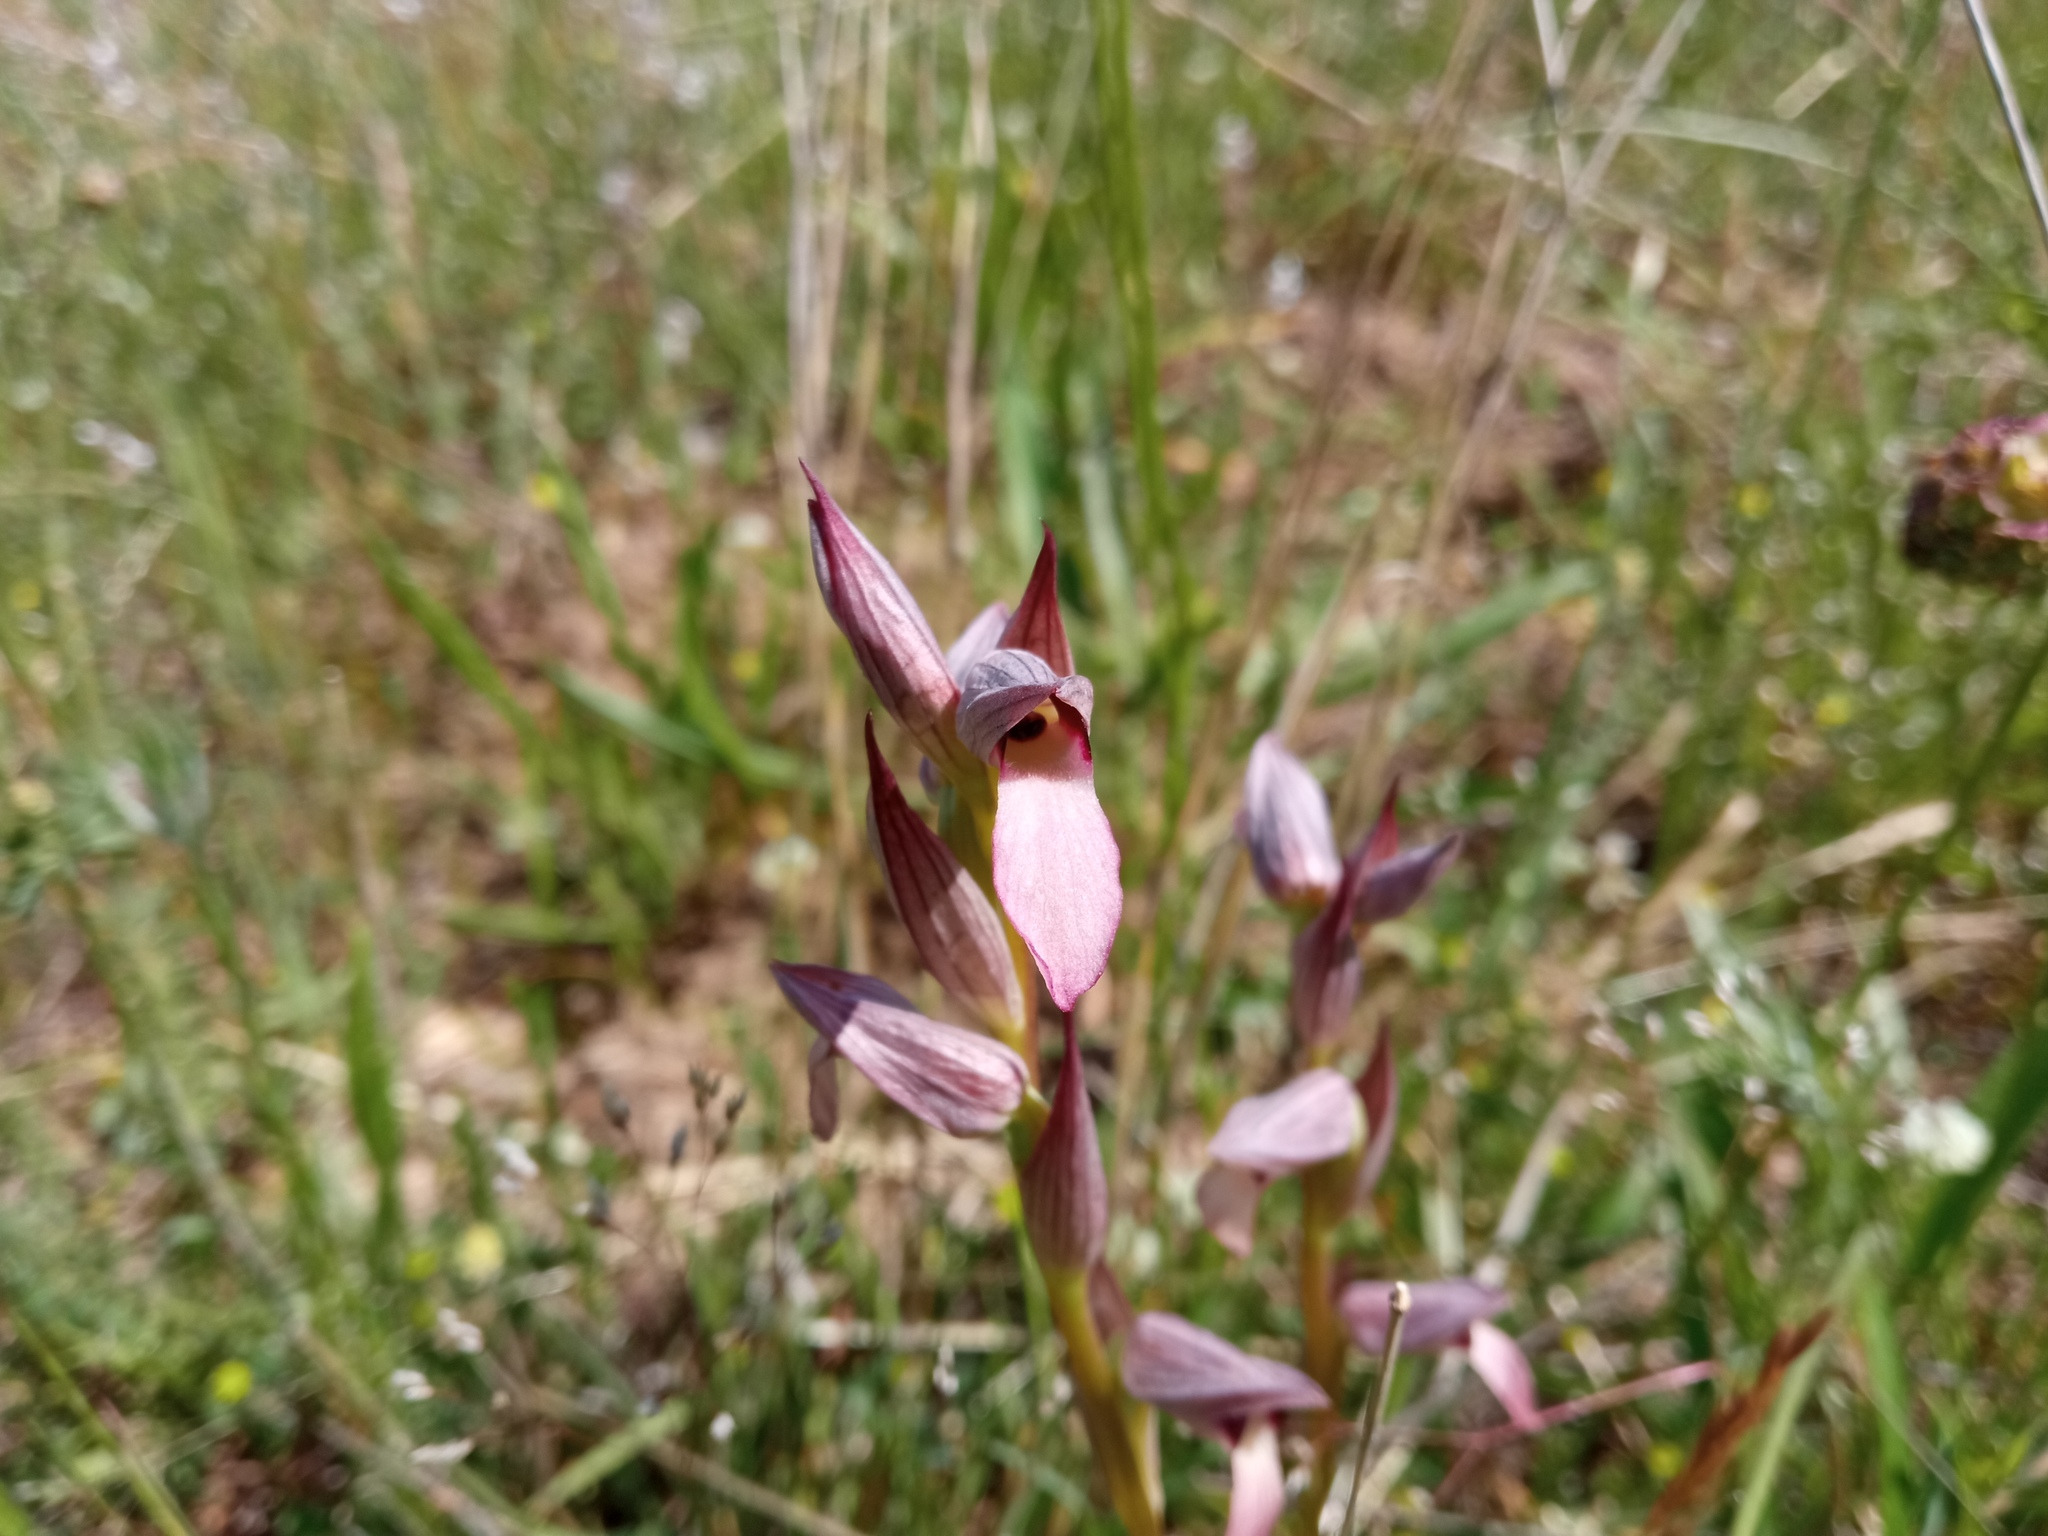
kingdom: Plantae
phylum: Tracheophyta
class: Liliopsida
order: Asparagales
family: Orchidaceae
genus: Serapias
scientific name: Serapias lingua
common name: Tongue-orchid
